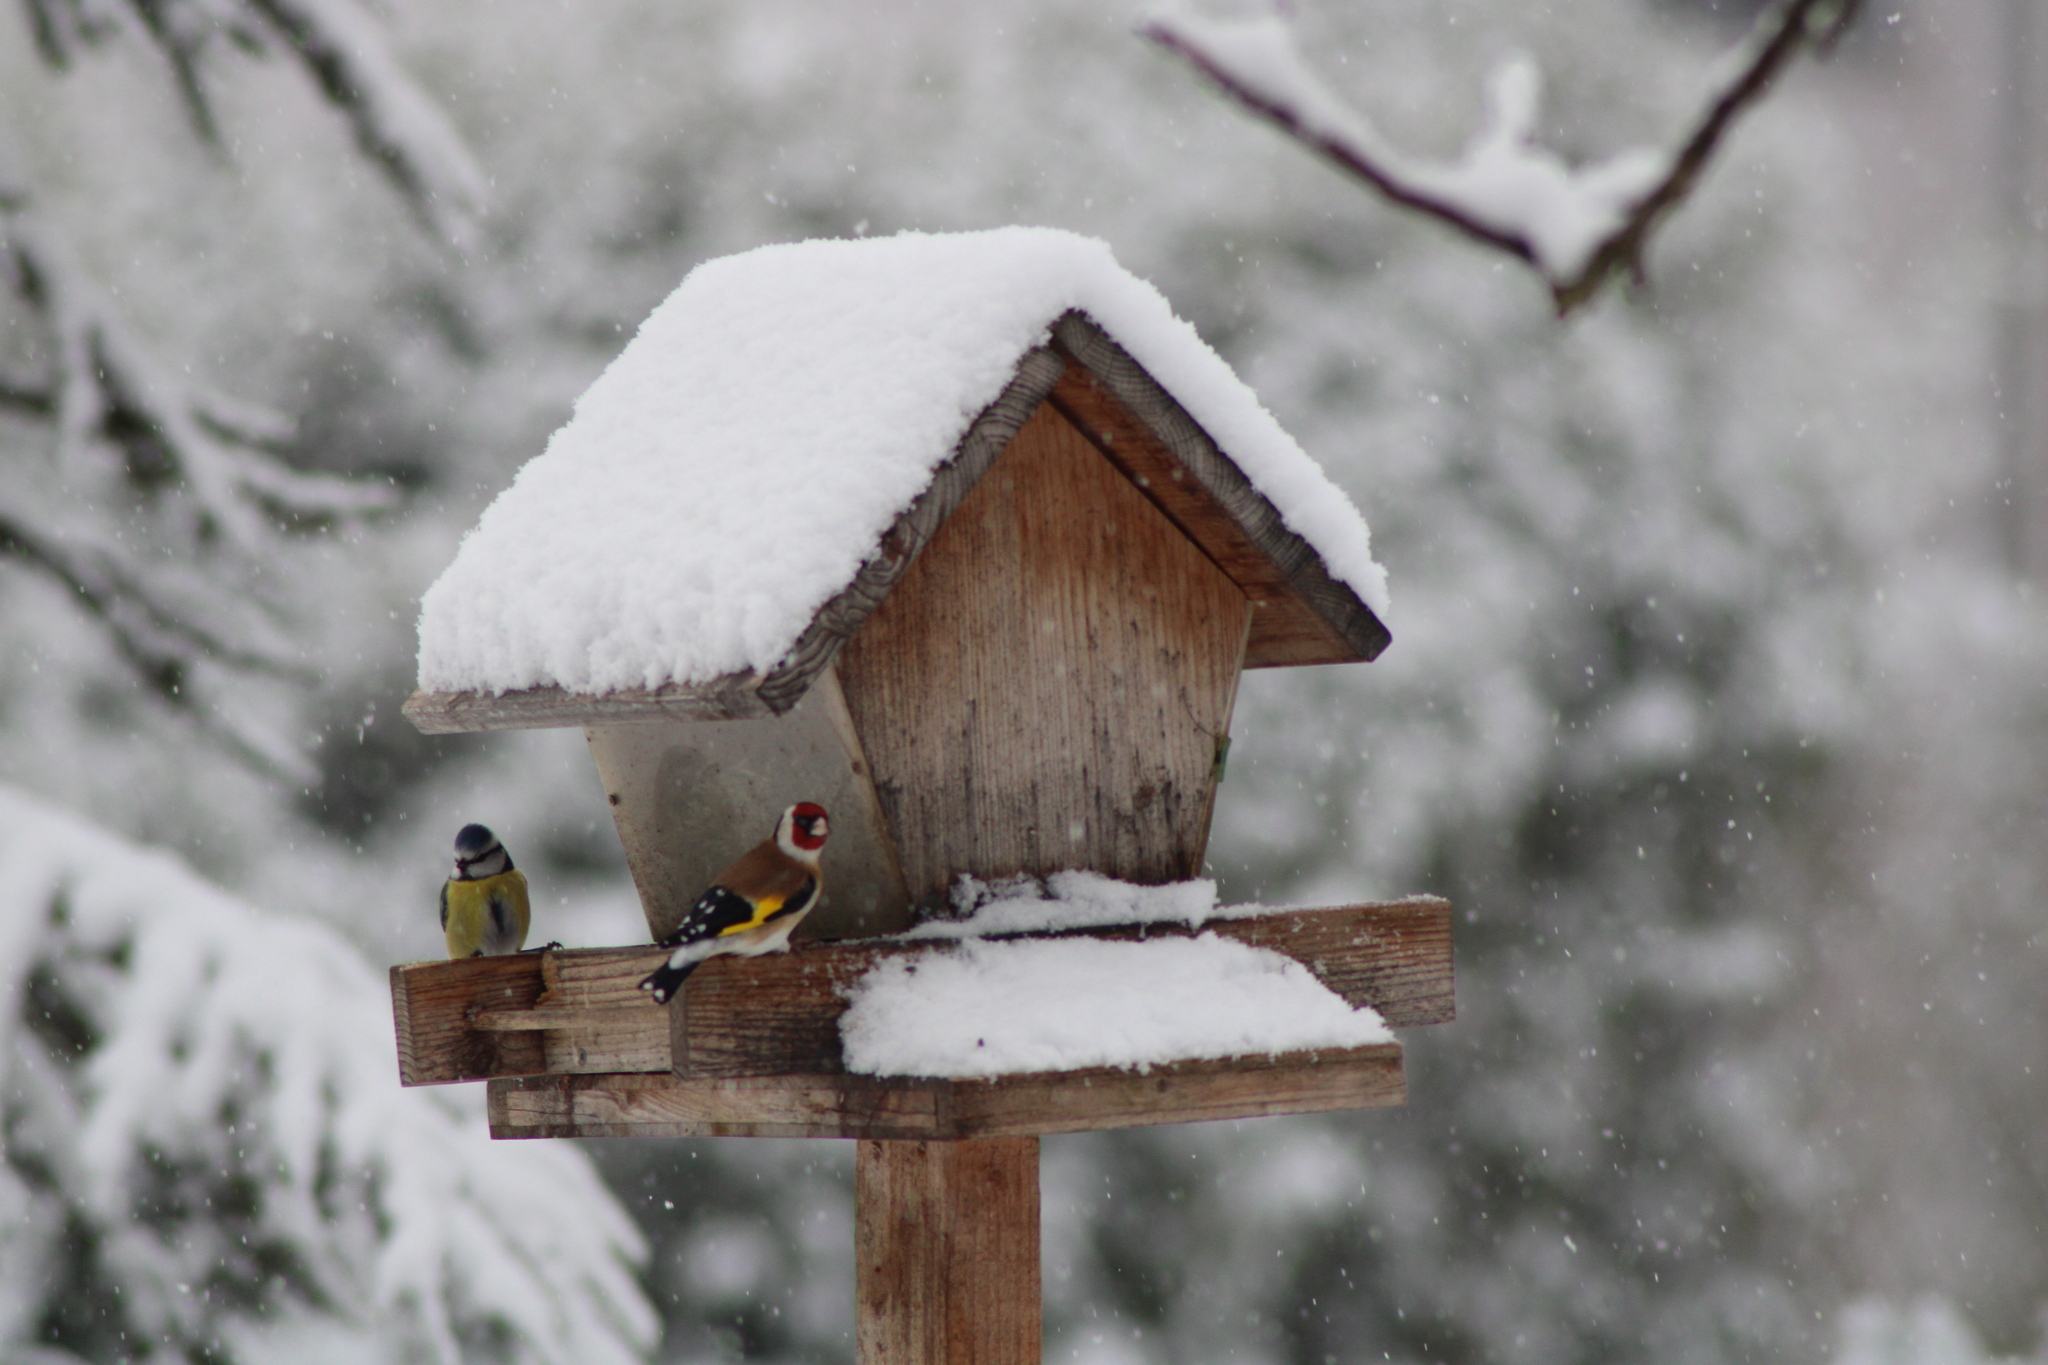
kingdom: Animalia
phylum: Chordata
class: Aves
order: Passeriformes
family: Paridae
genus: Cyanistes
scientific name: Cyanistes caeruleus
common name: Eurasian blue tit
